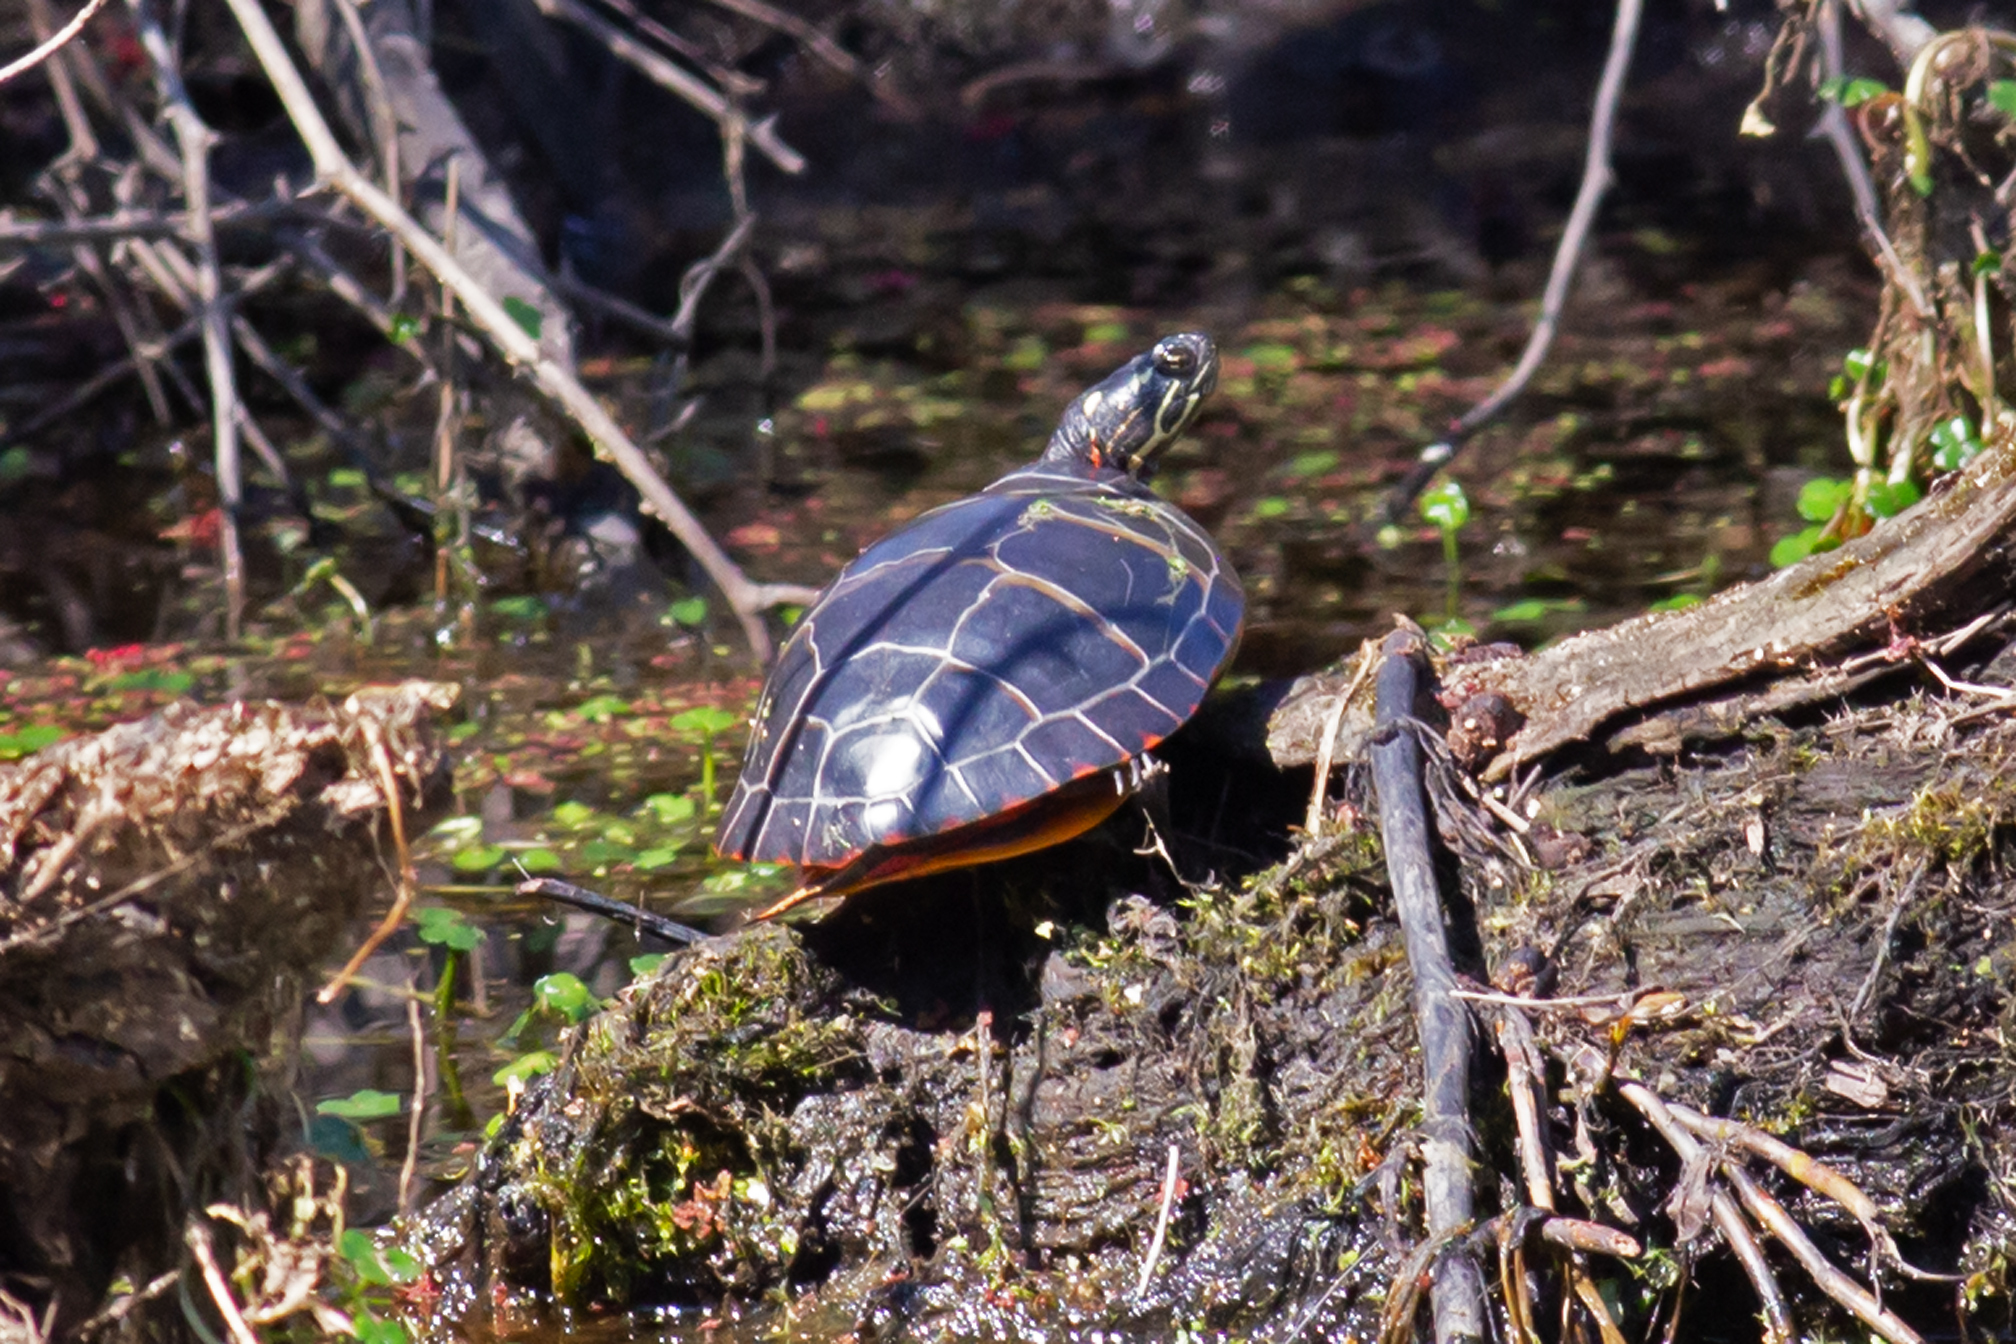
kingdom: Animalia
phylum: Chordata
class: Testudines
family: Emydidae
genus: Chrysemys
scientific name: Chrysemys picta
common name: Painted turtle
